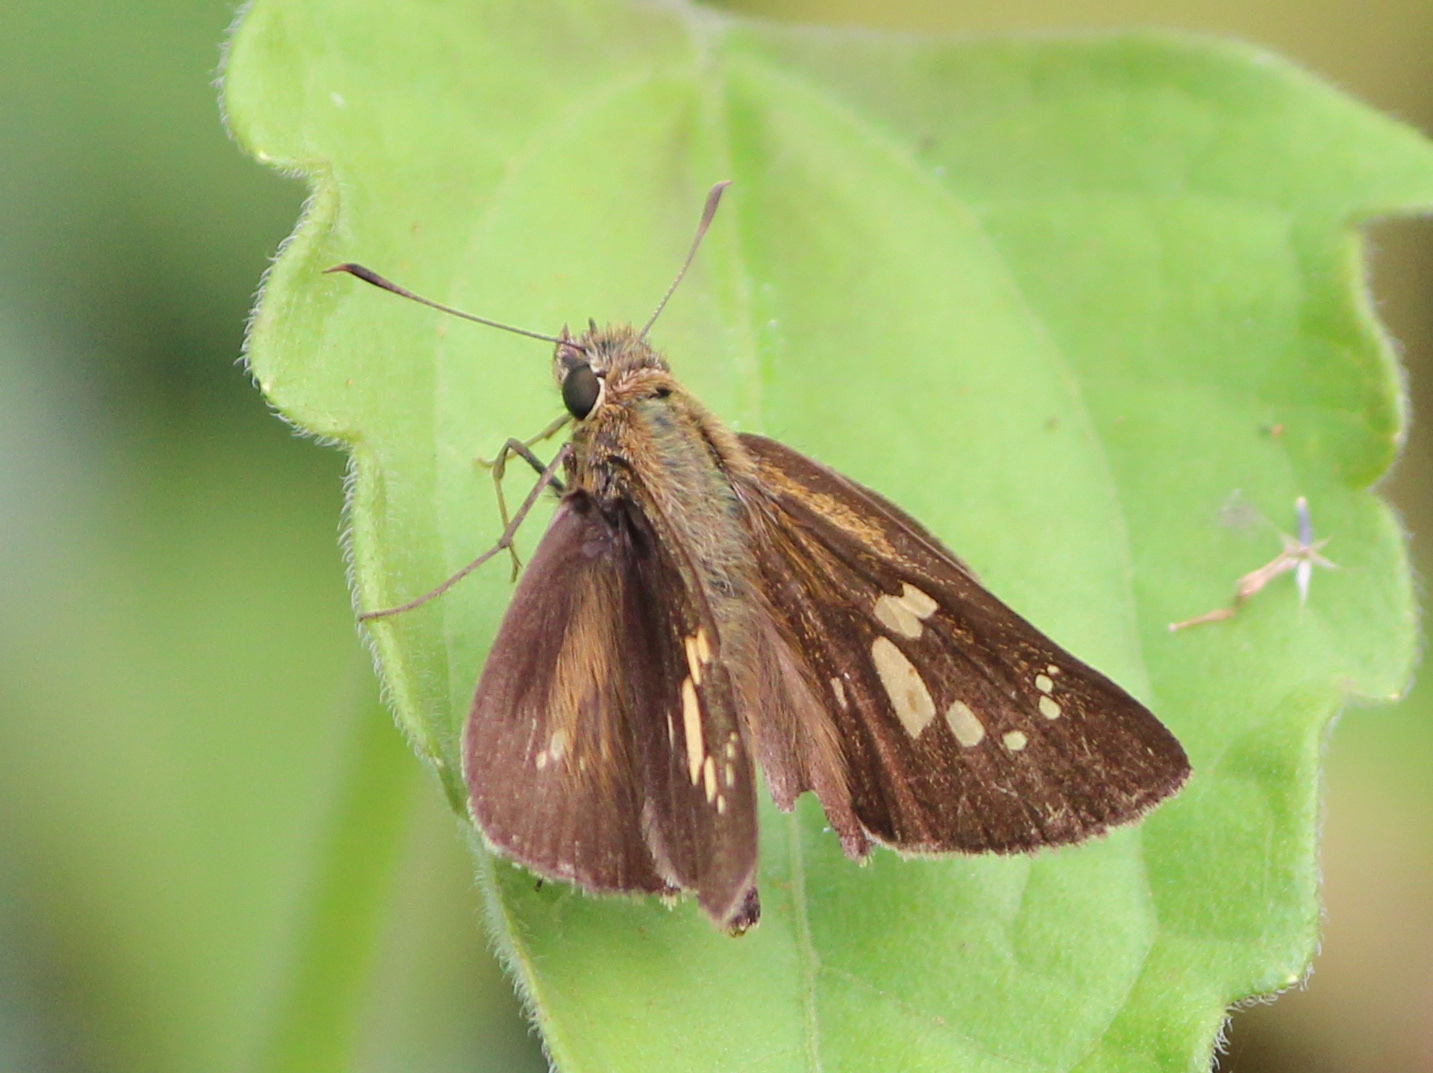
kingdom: Animalia
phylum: Arthropoda
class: Insecta
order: Lepidoptera
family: Hesperiidae
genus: Polytremis
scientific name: Polytremis lubricans
